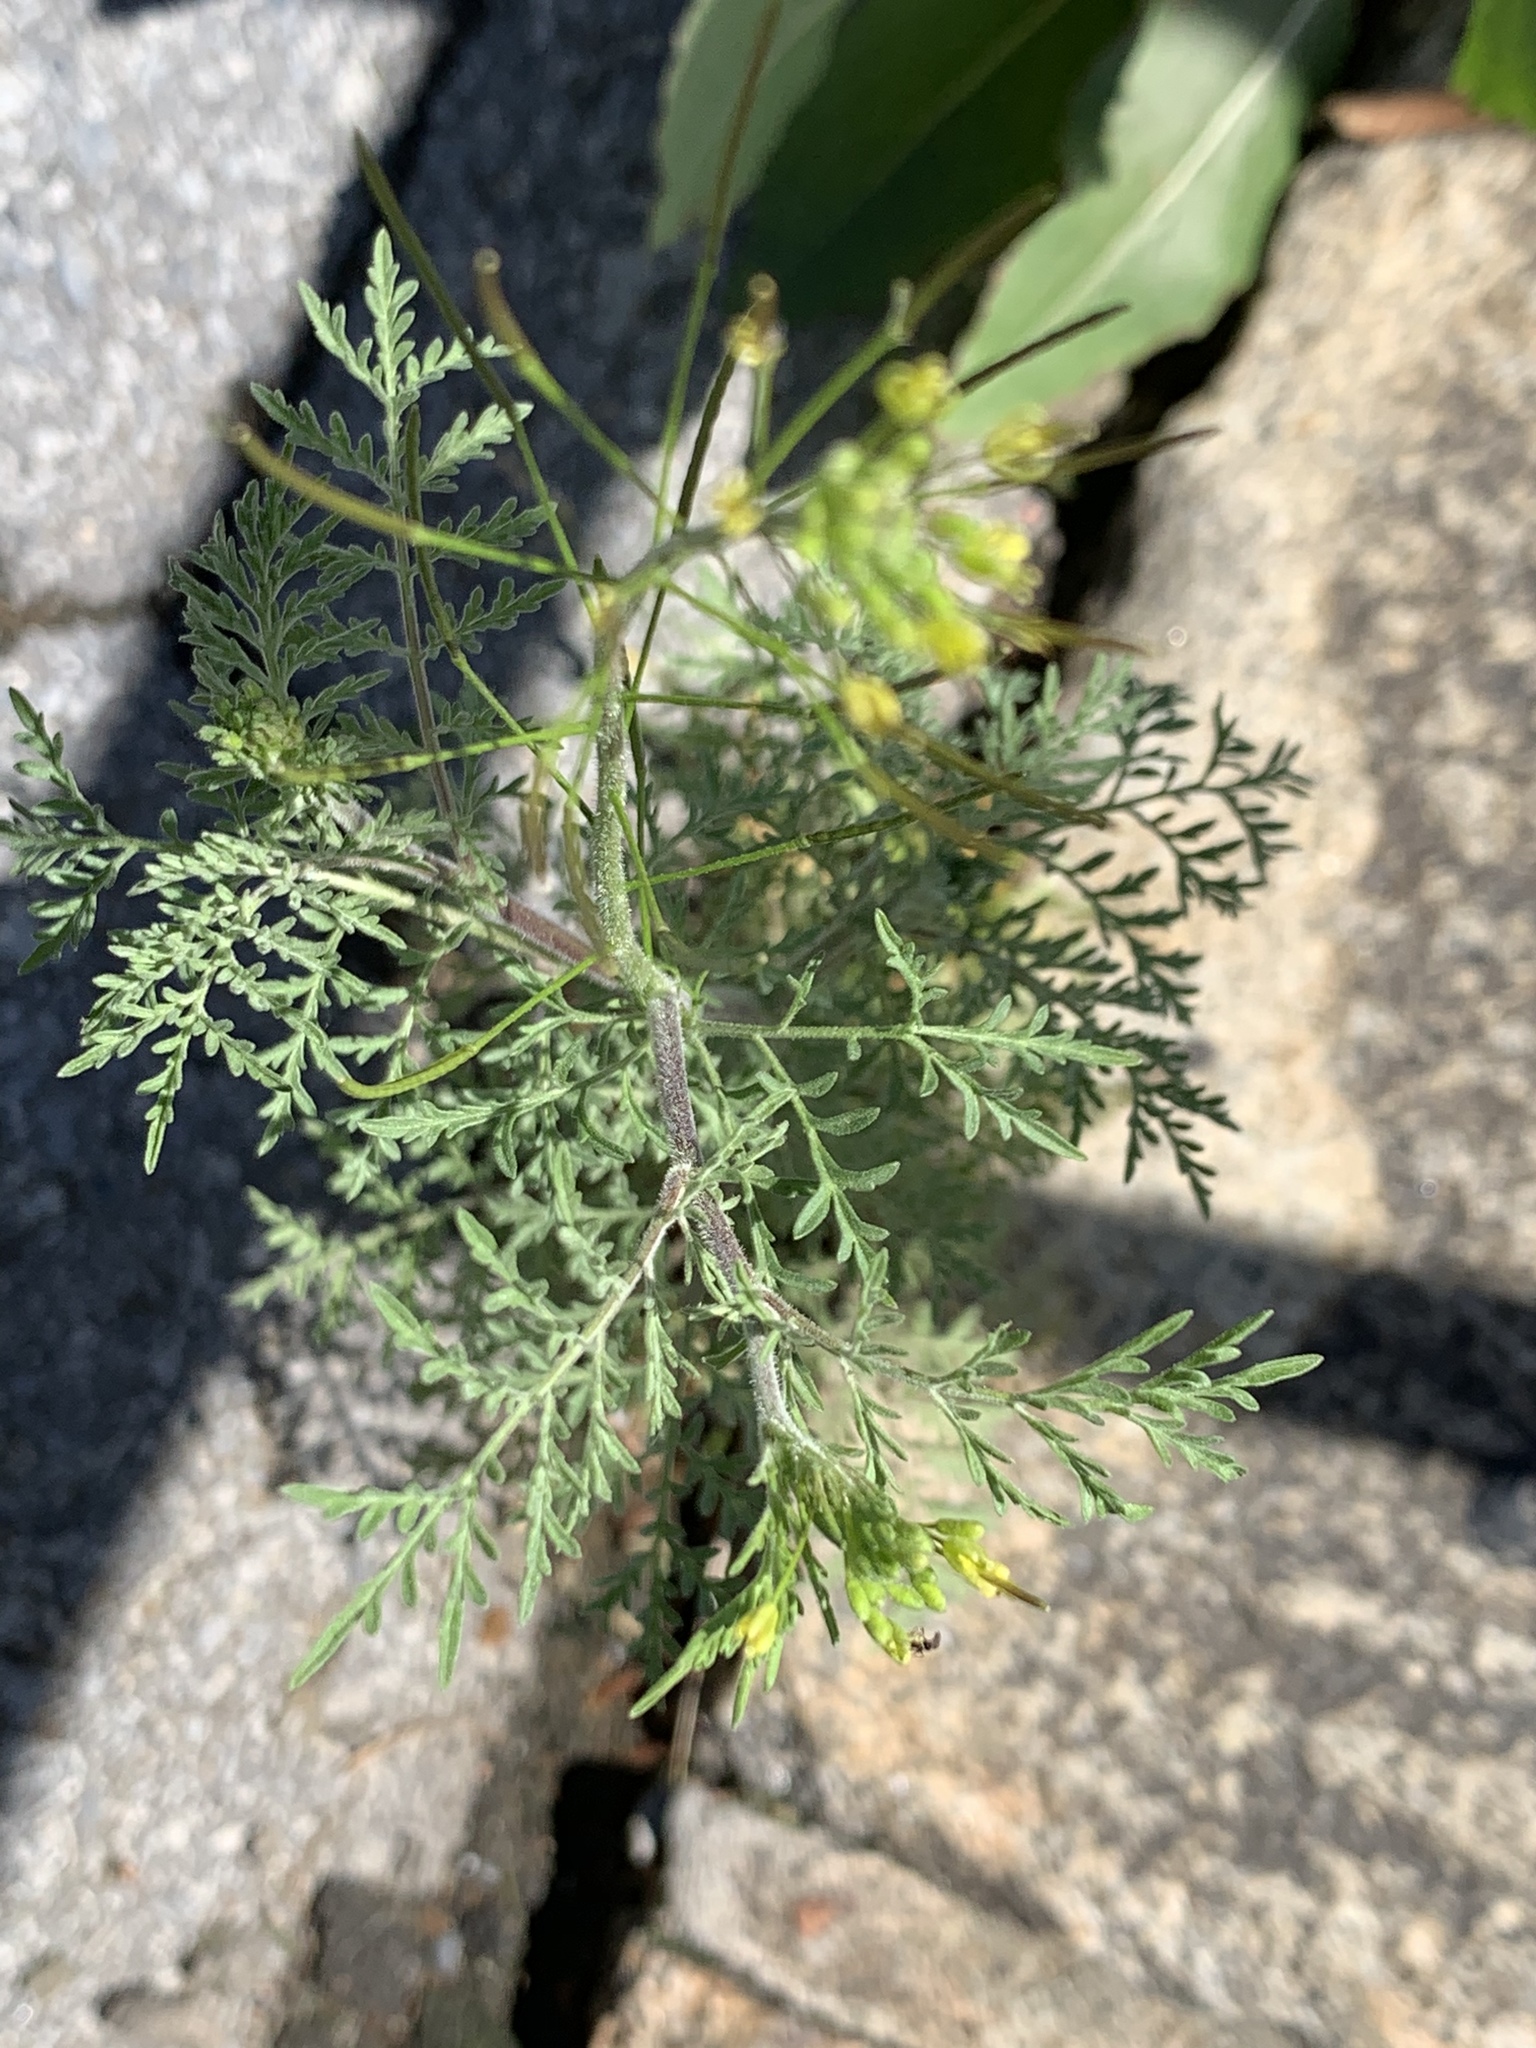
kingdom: Plantae
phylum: Tracheophyta
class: Magnoliopsida
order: Brassicales
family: Brassicaceae
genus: Descurainia
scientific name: Descurainia sophia
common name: Flixweed
